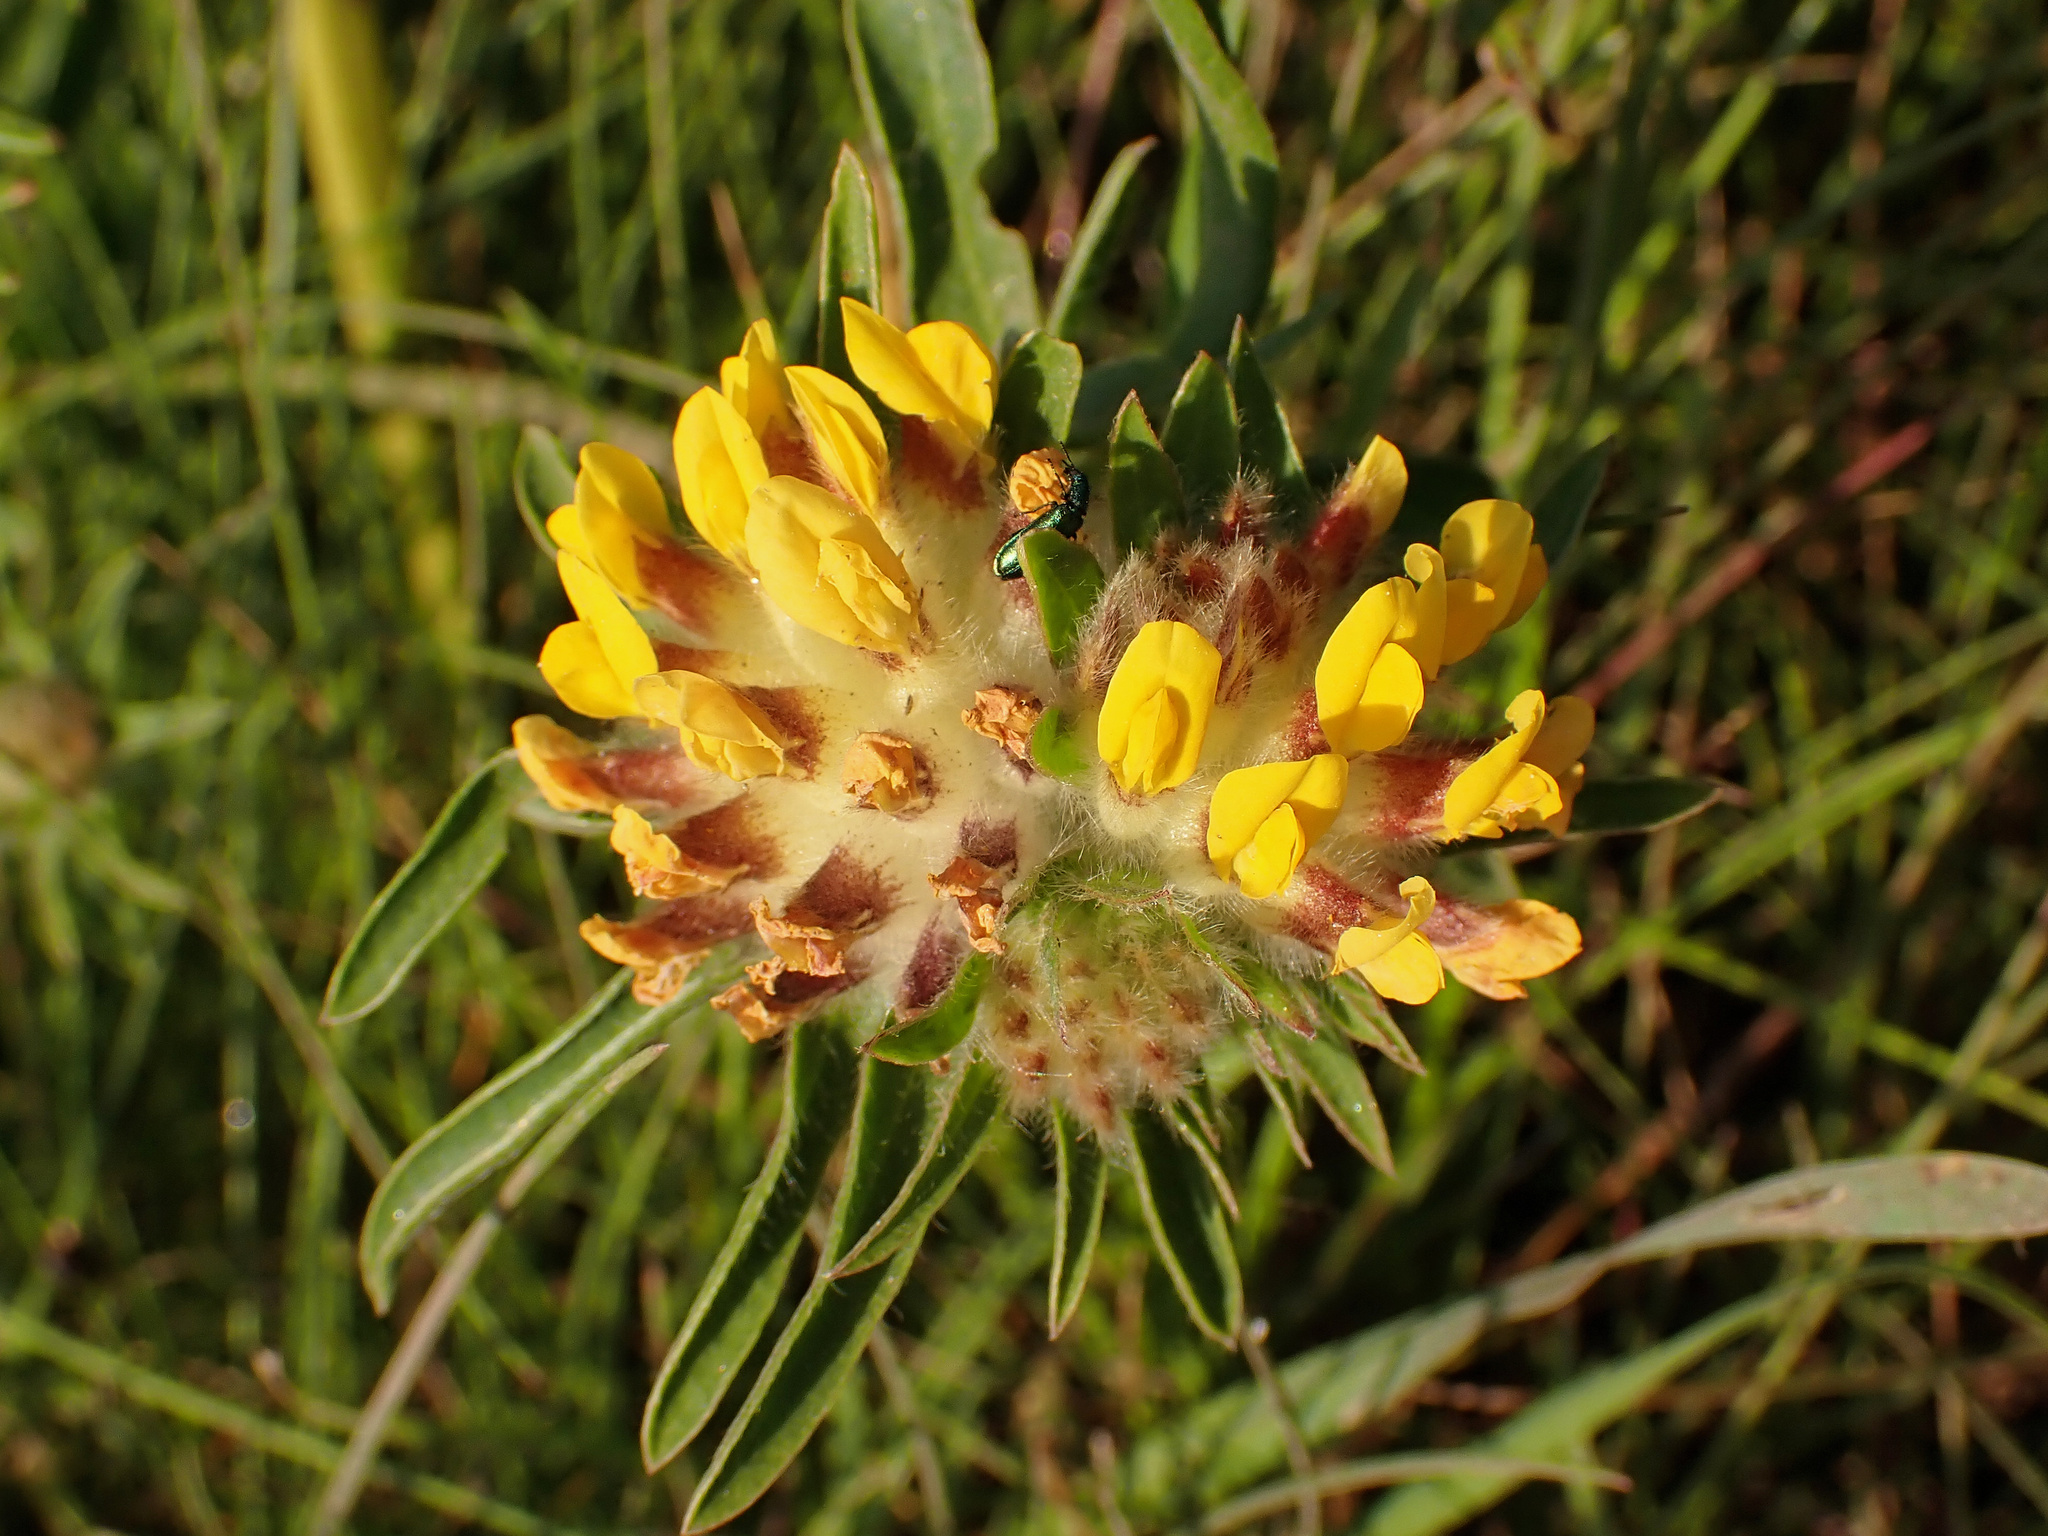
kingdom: Plantae
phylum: Tracheophyta
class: Magnoliopsida
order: Fabales
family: Fabaceae
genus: Anthyllis
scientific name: Anthyllis vulneraria
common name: Kidney vetch
